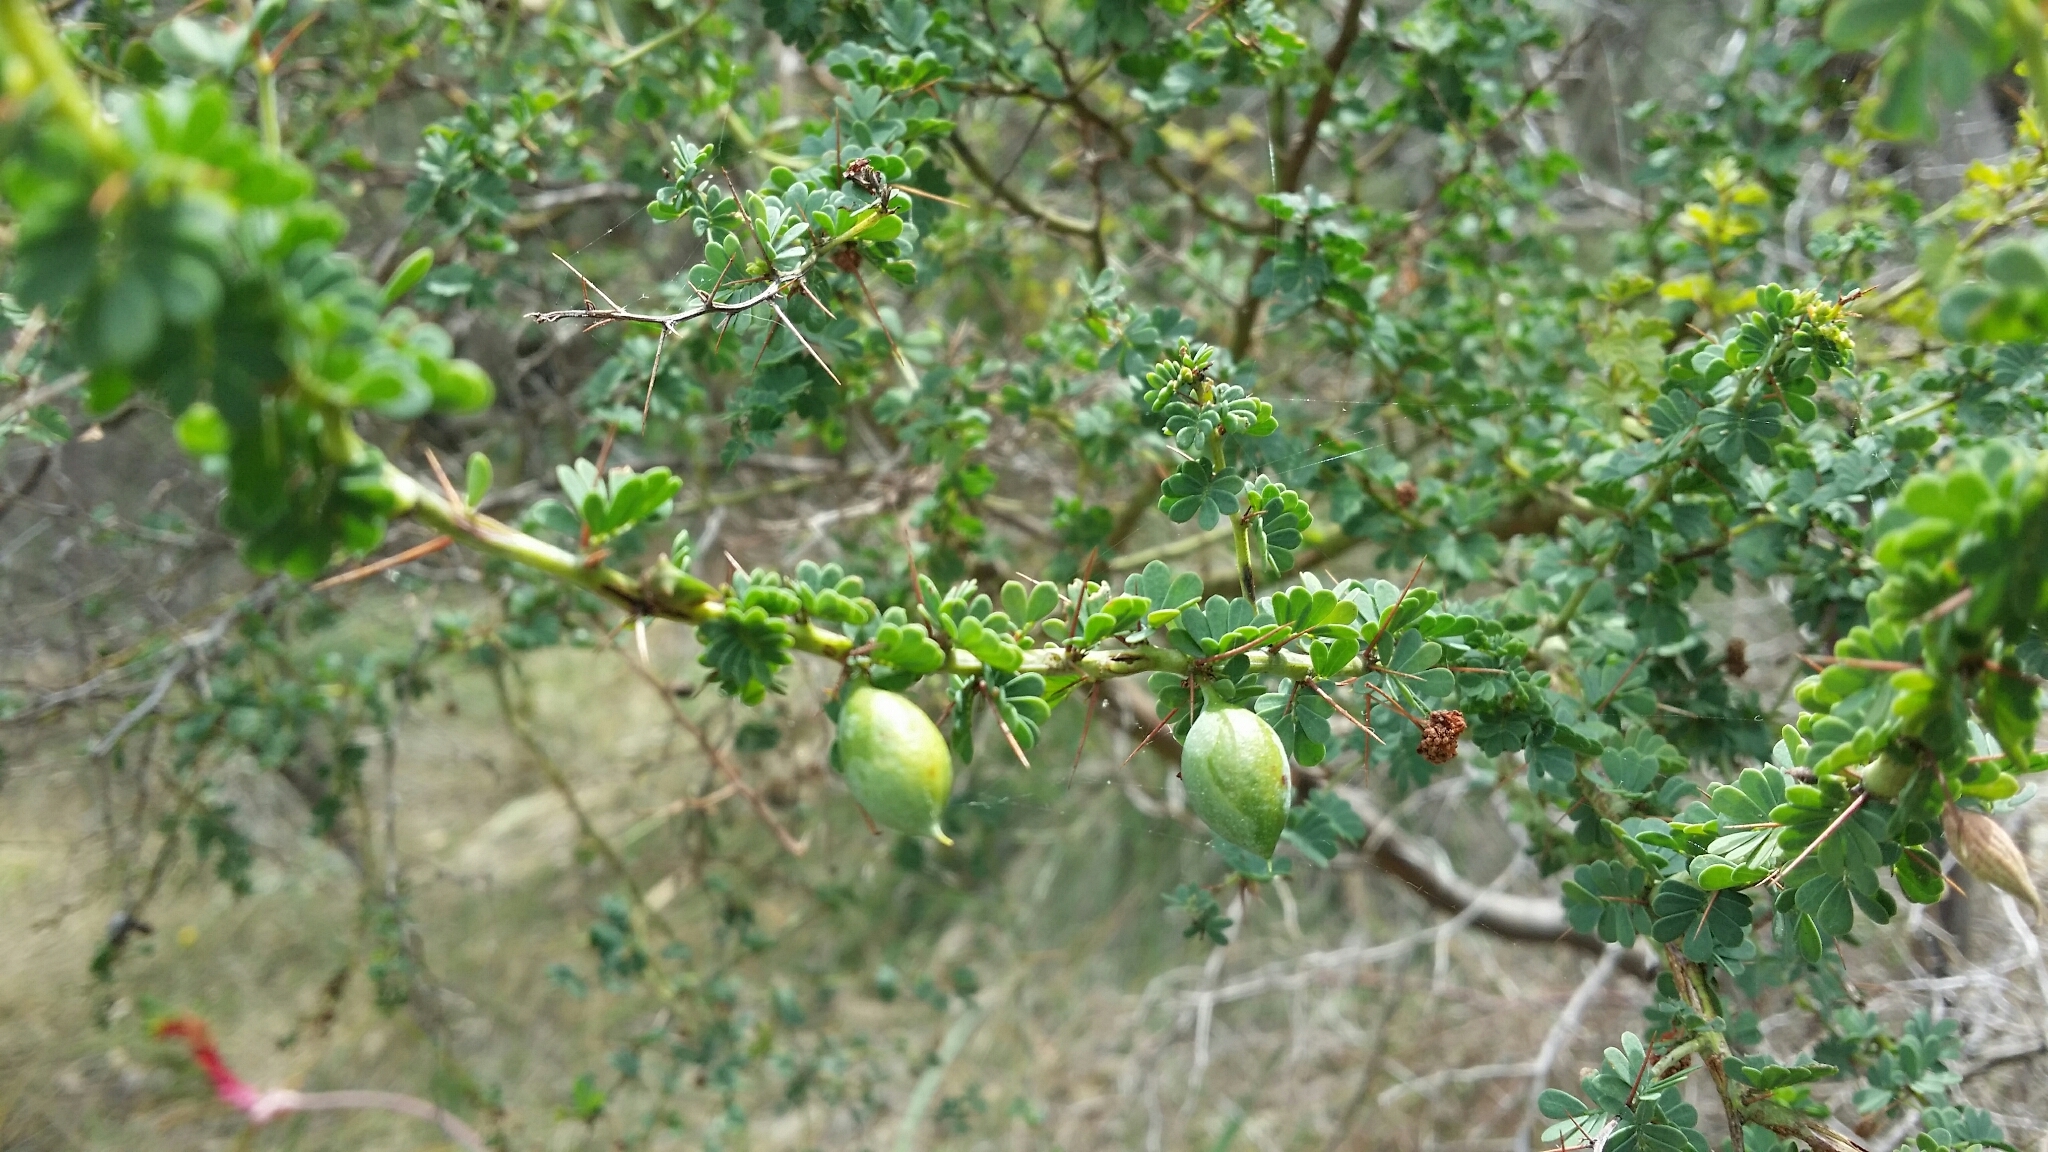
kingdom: Plantae
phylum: Tracheophyta
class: Magnoliopsida
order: Fabales
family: Fabaceae
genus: Acacia
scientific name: Acacia pulchella
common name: Prickly moses
